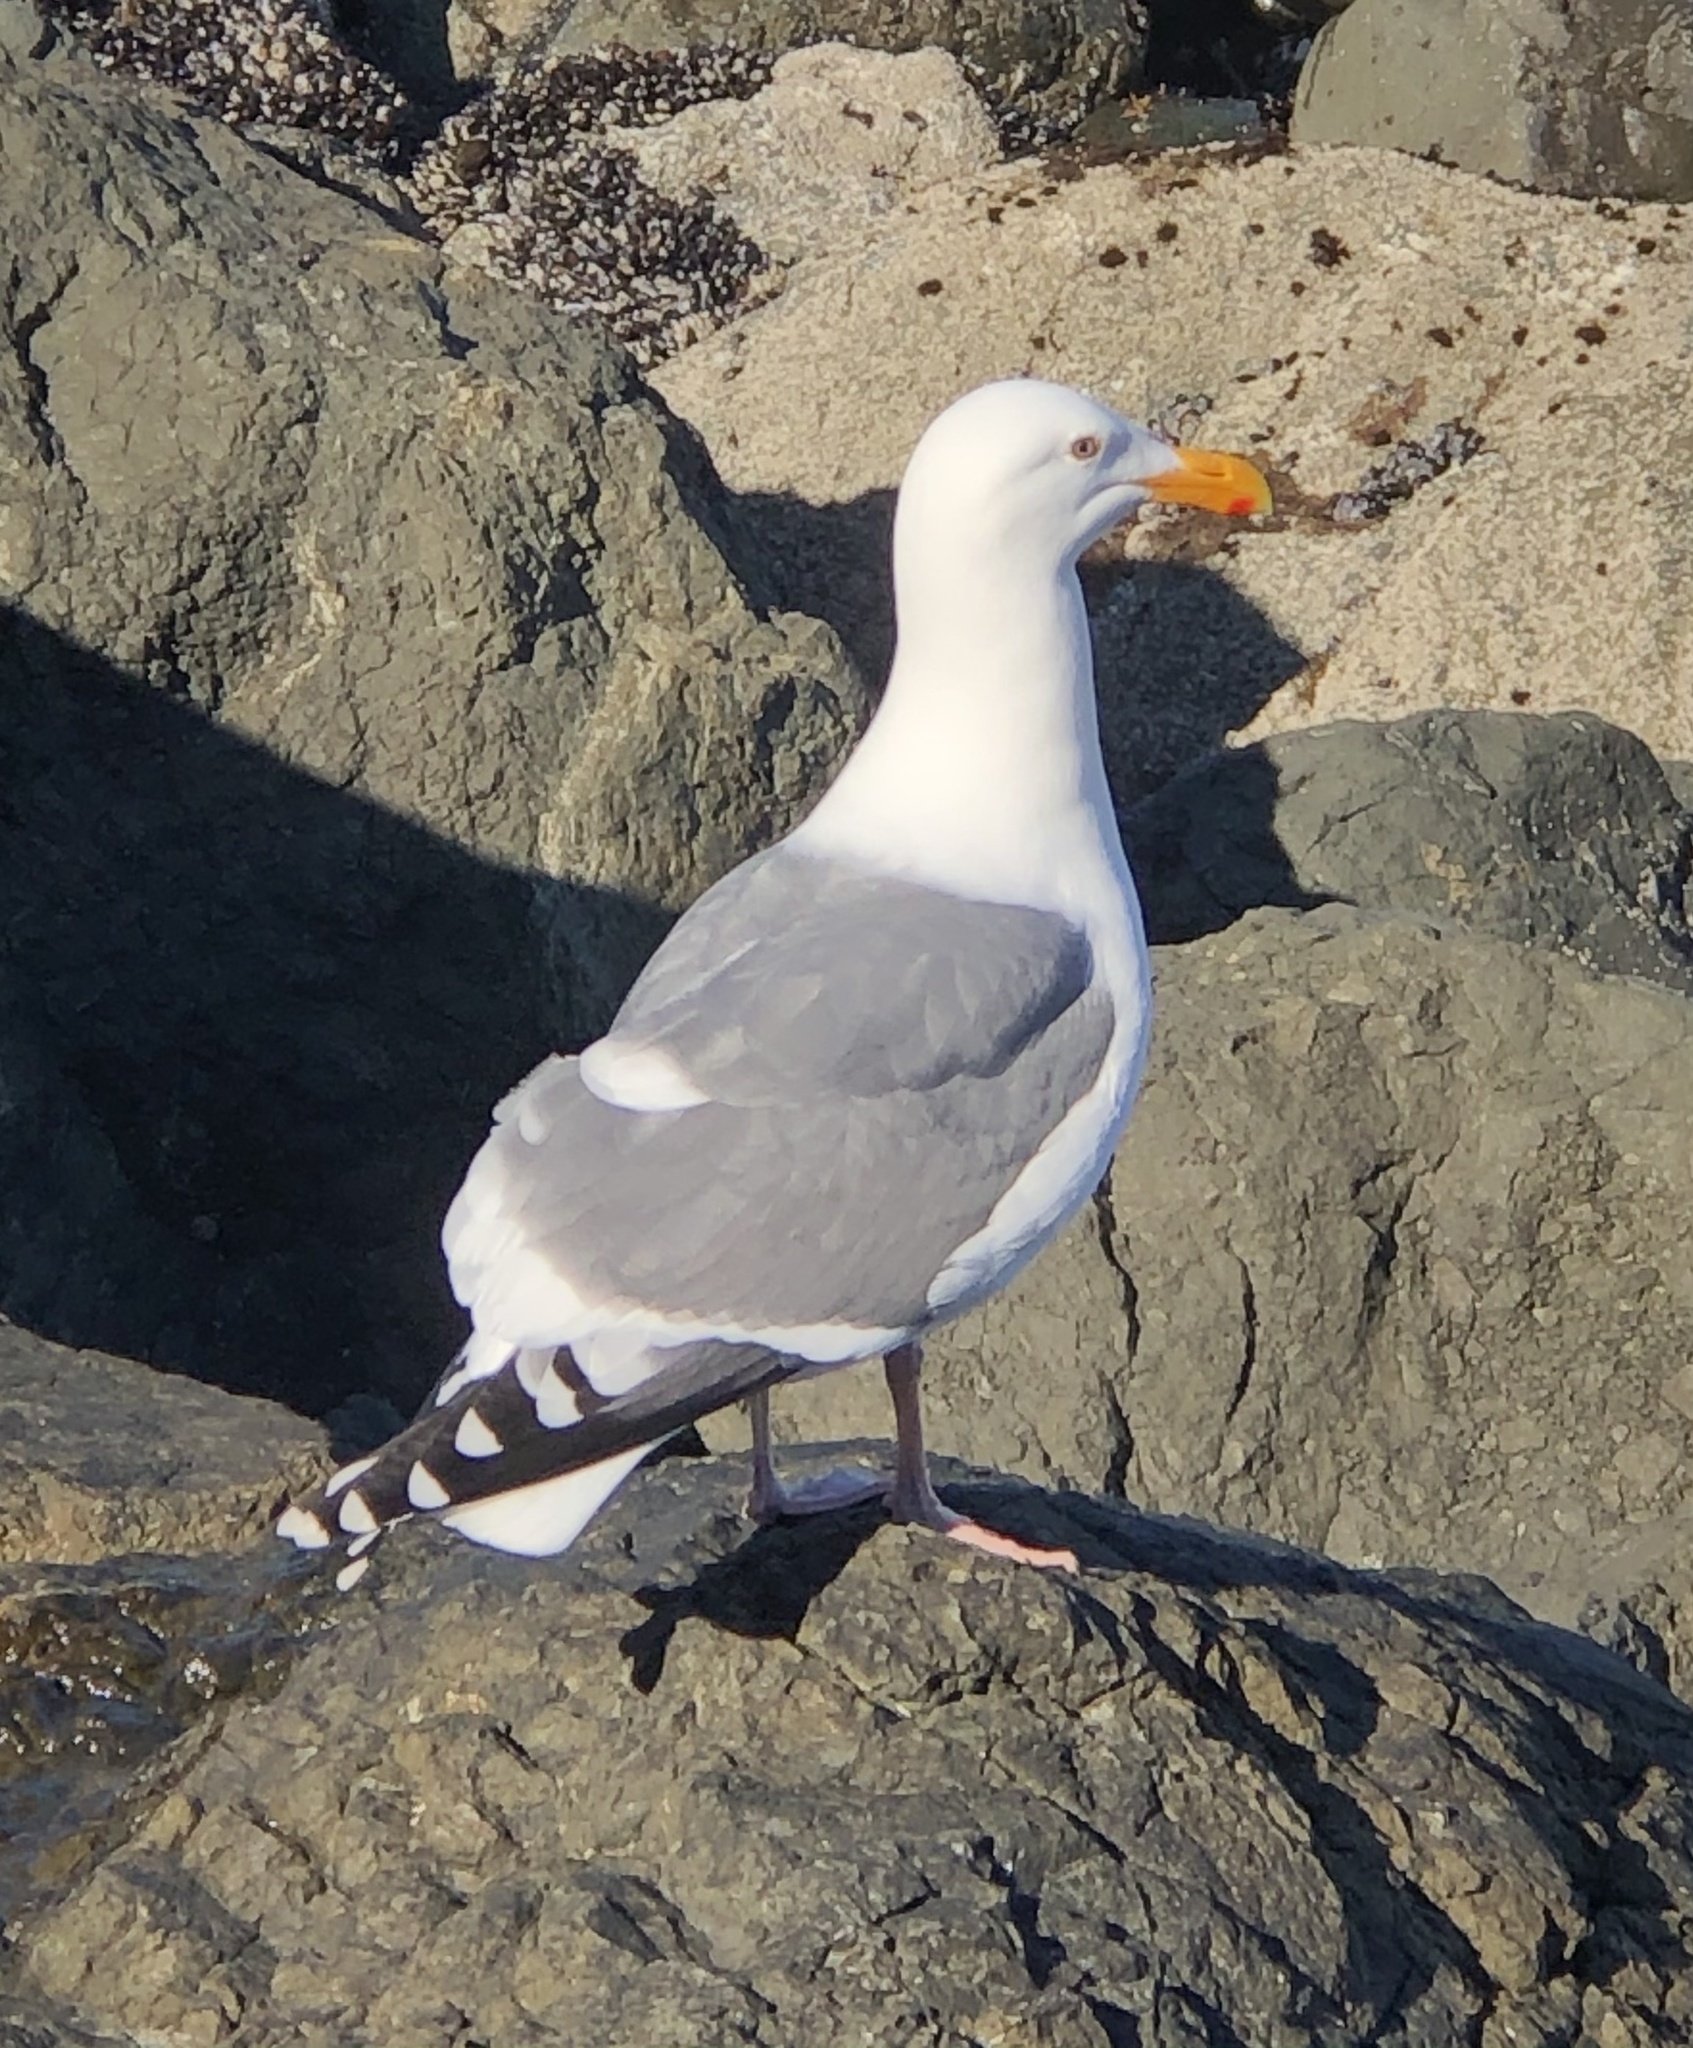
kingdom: Animalia
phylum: Chordata
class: Aves
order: Charadriiformes
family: Laridae
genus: Larus
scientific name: Larus occidentalis
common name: Western gull
